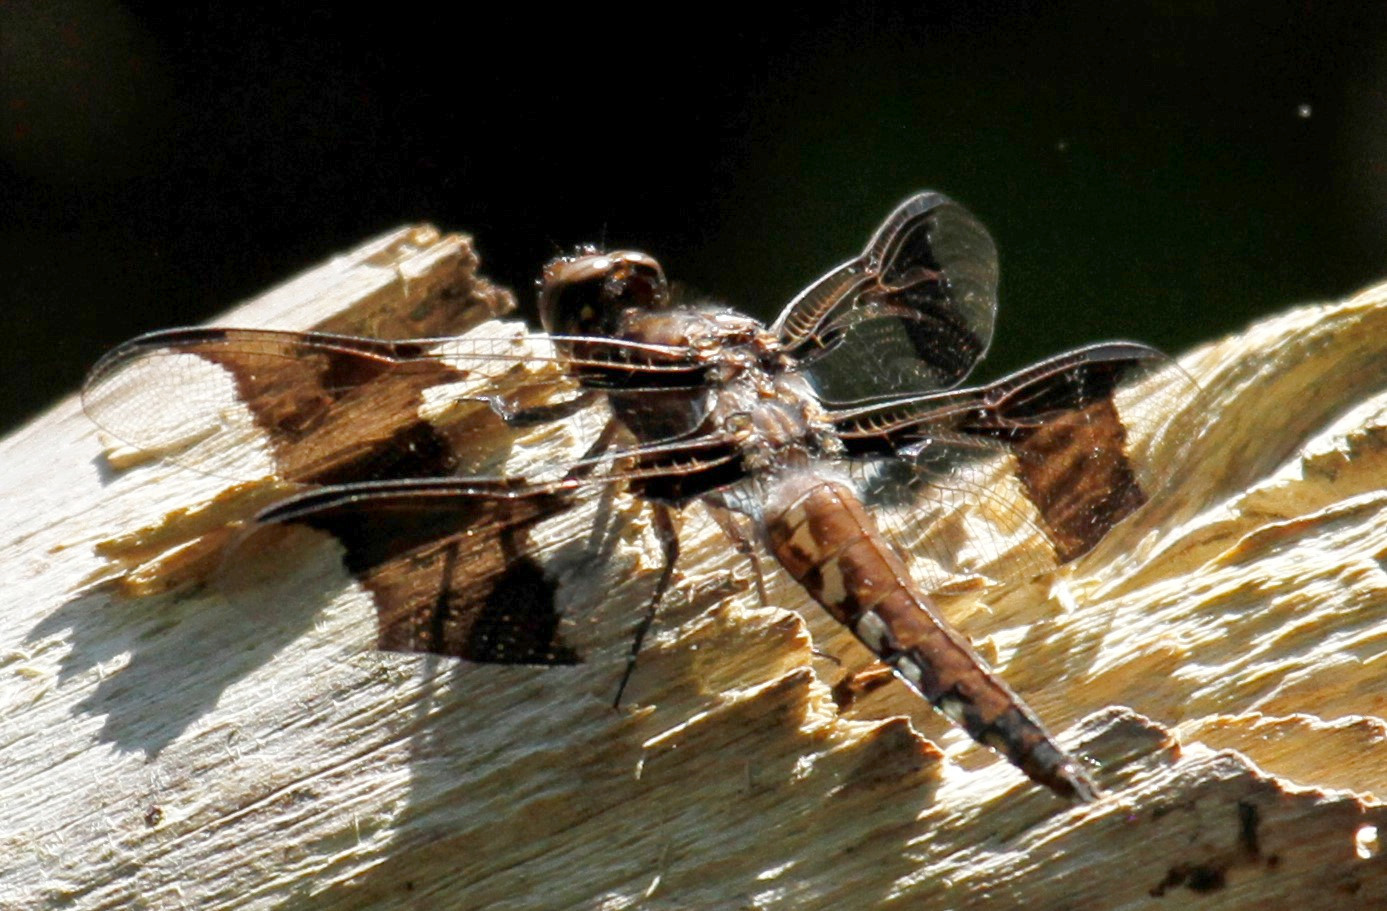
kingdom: Animalia
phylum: Arthropoda
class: Insecta
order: Odonata
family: Libellulidae
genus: Plathemis
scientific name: Plathemis lydia
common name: Common whitetail
